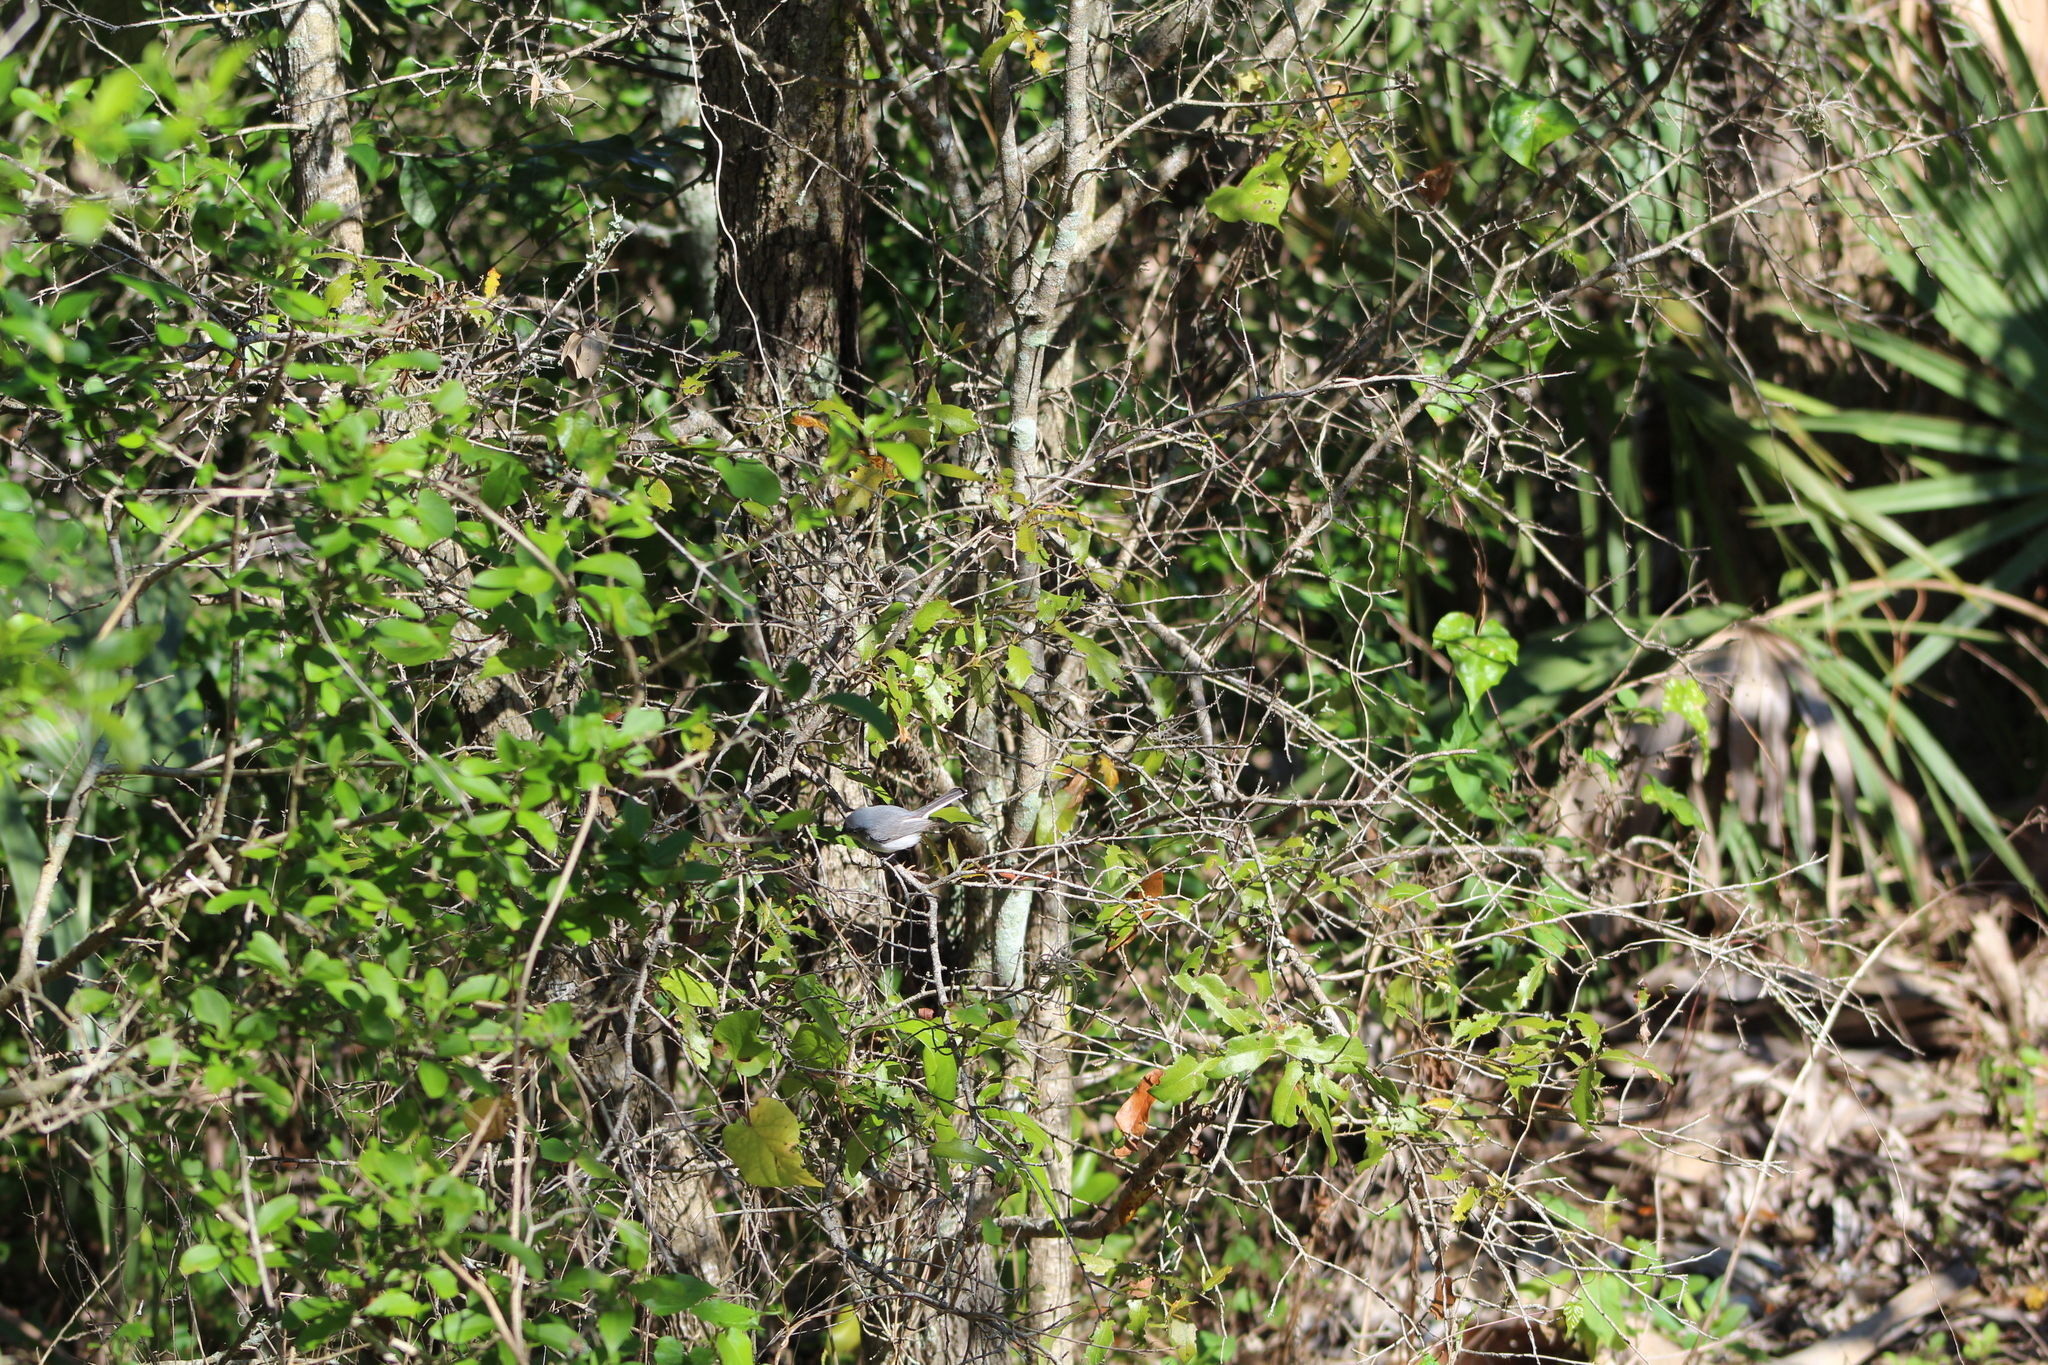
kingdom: Animalia
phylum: Chordata
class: Aves
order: Passeriformes
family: Polioptilidae
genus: Polioptila
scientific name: Polioptila caerulea
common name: Blue-gray gnatcatcher
